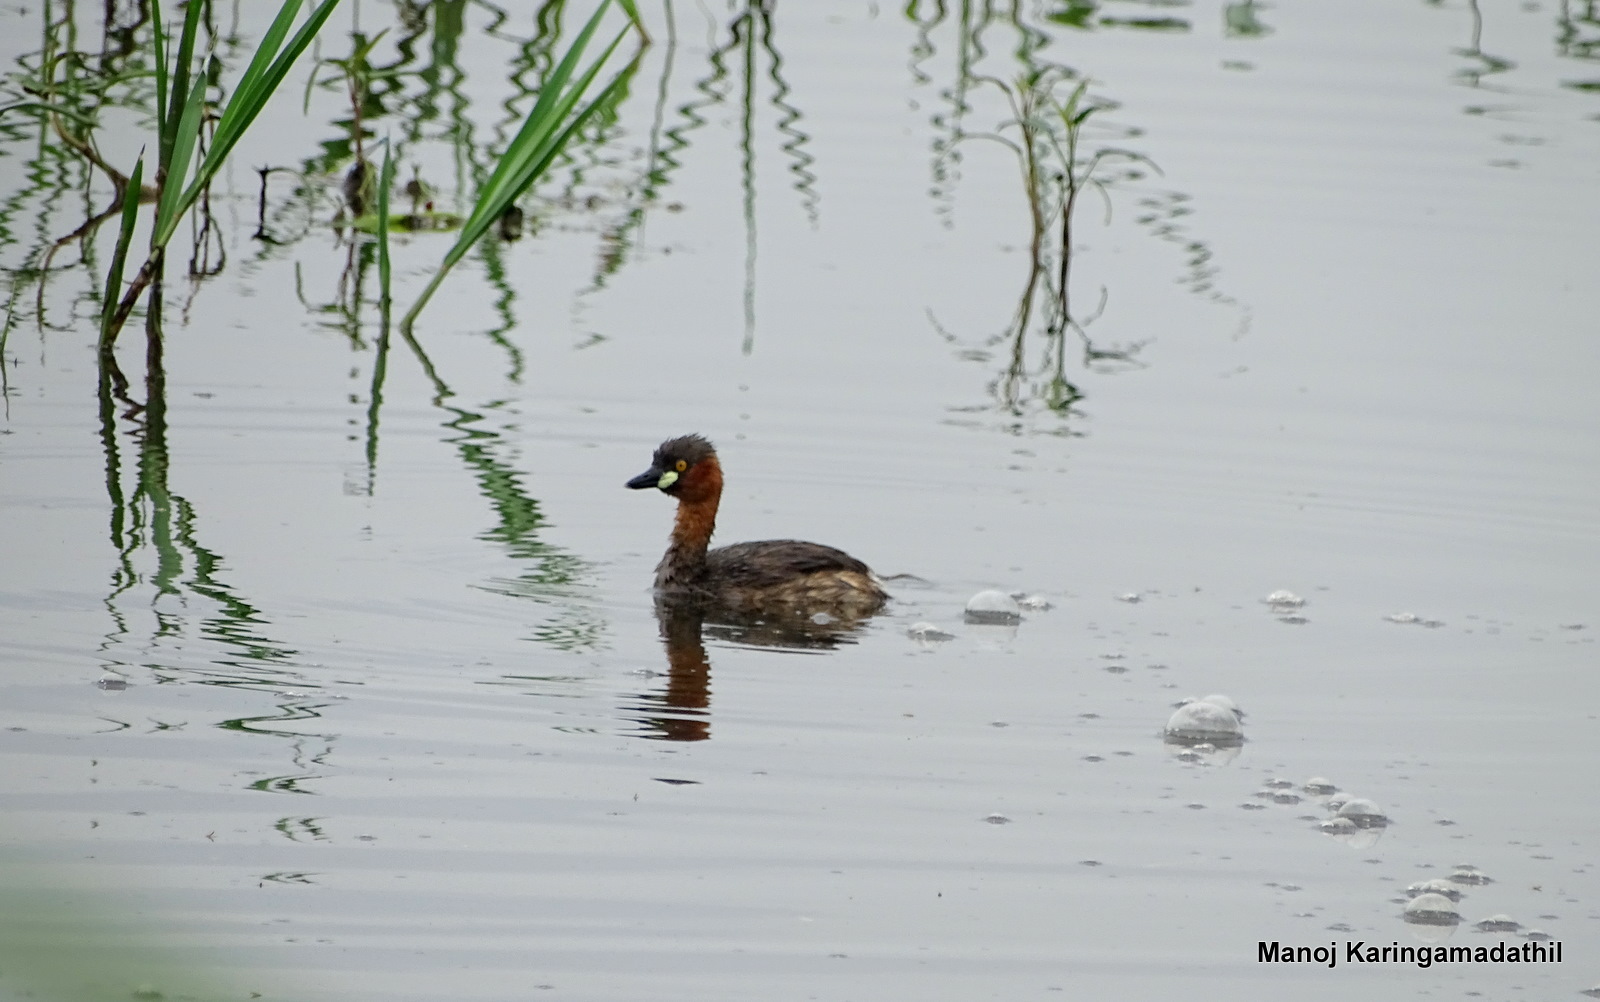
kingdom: Animalia
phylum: Chordata
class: Aves
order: Podicipediformes
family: Podicipedidae
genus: Tachybaptus
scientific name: Tachybaptus ruficollis
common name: Little grebe
